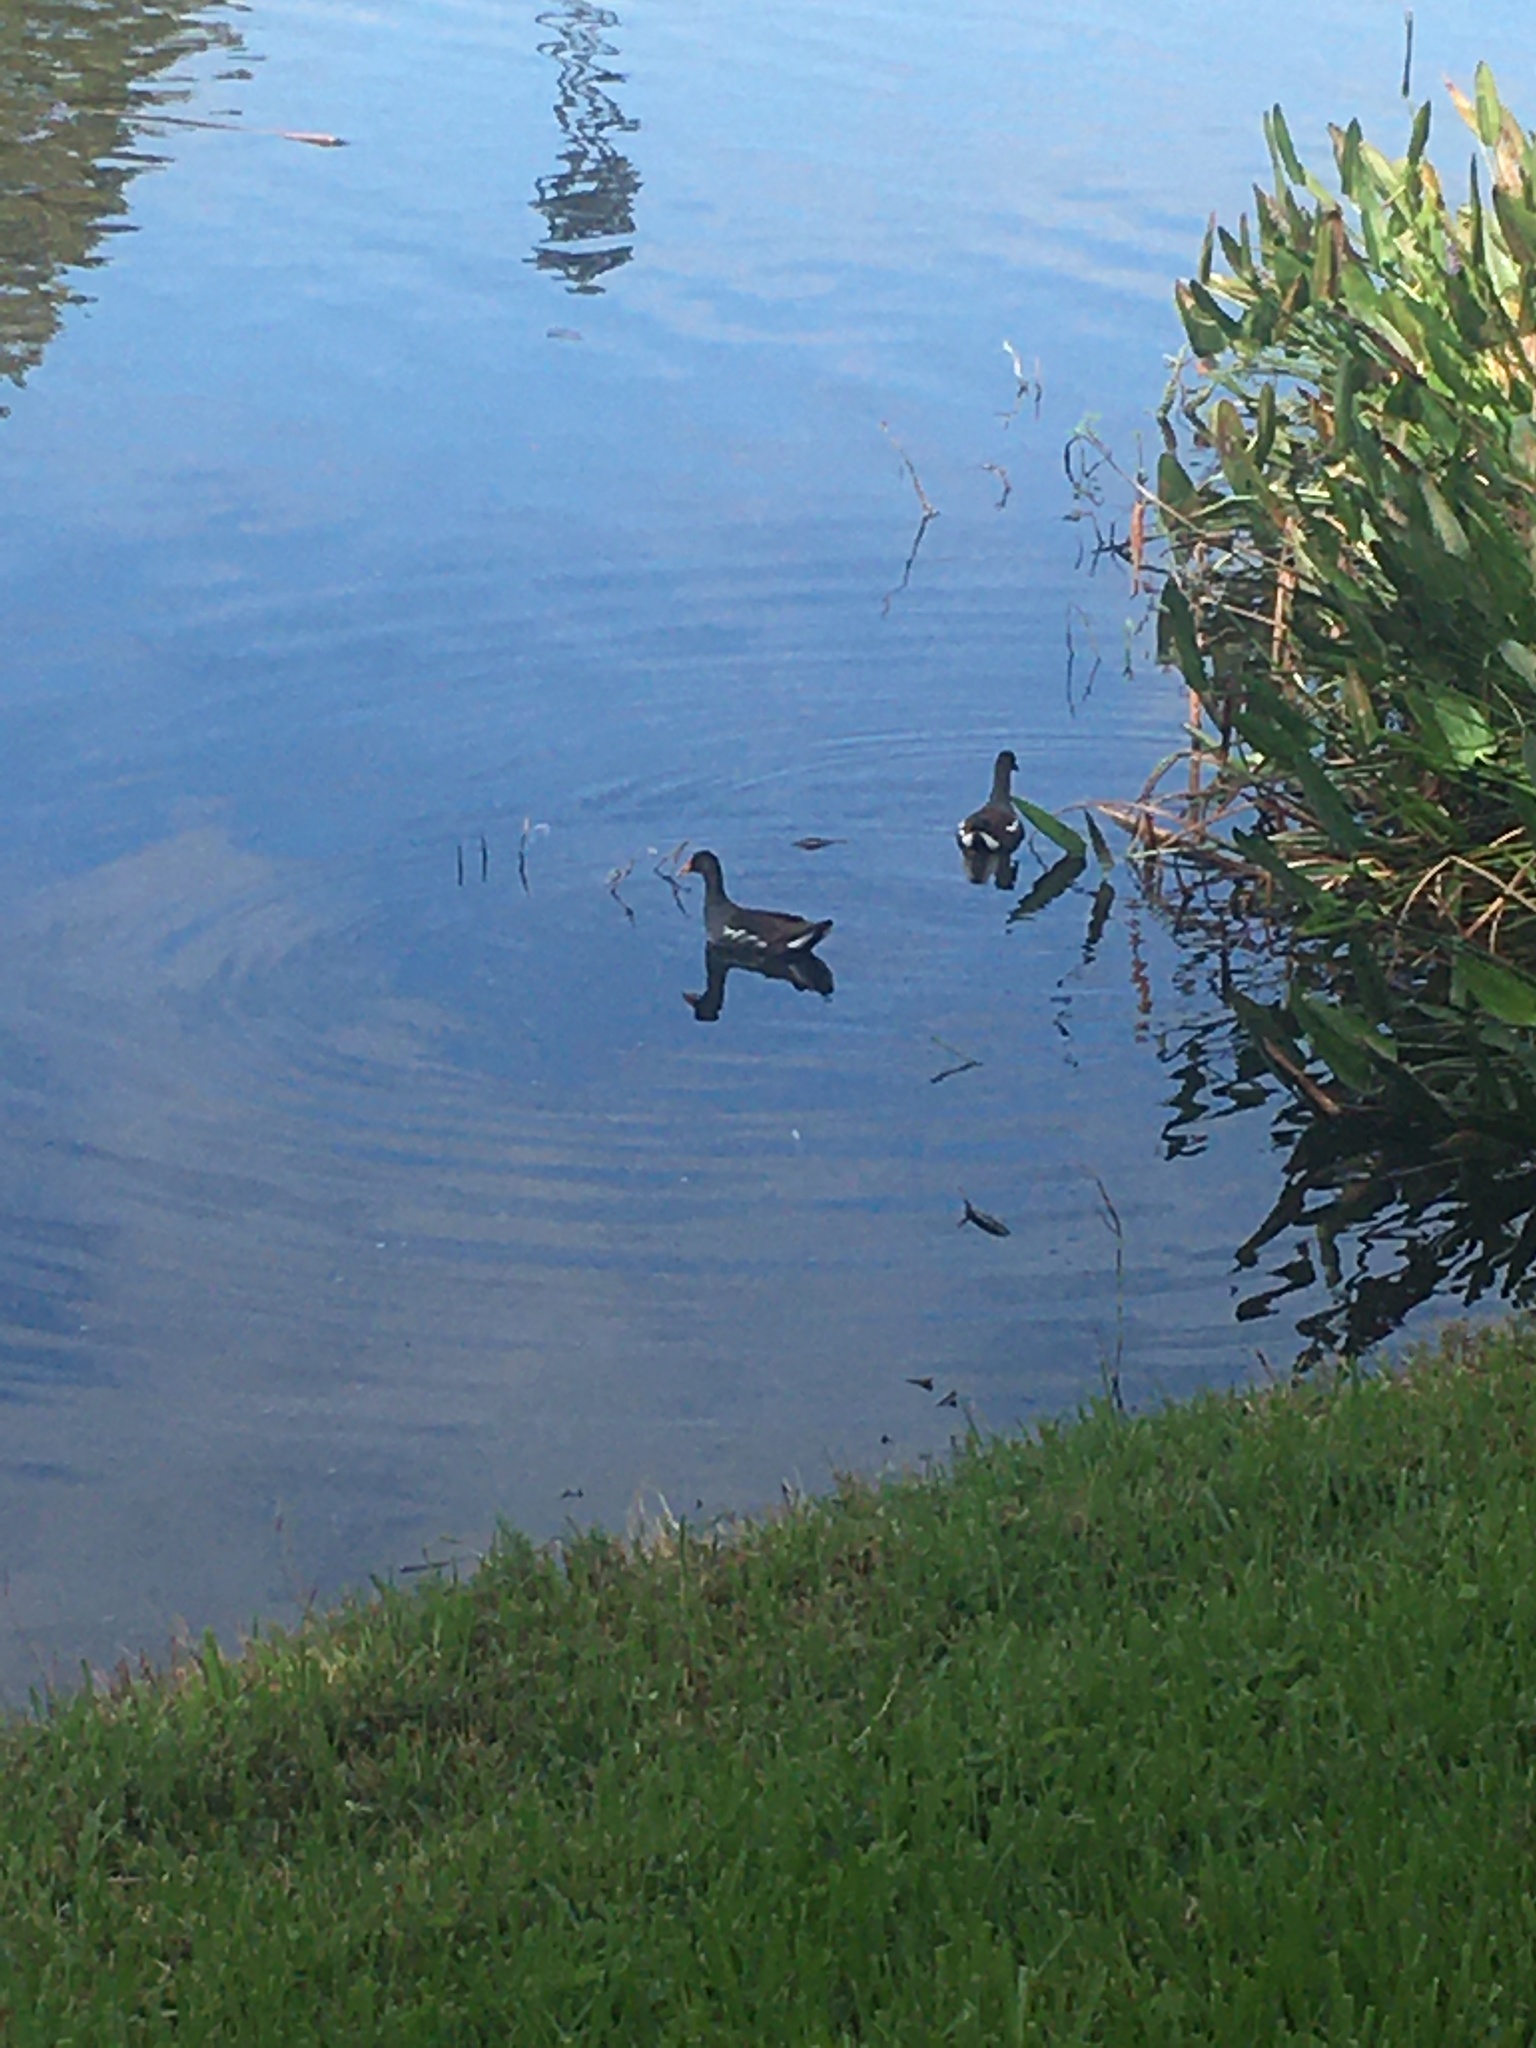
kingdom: Animalia
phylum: Chordata
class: Aves
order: Gruiformes
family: Rallidae
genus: Gallinula
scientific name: Gallinula chloropus
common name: Common moorhen
